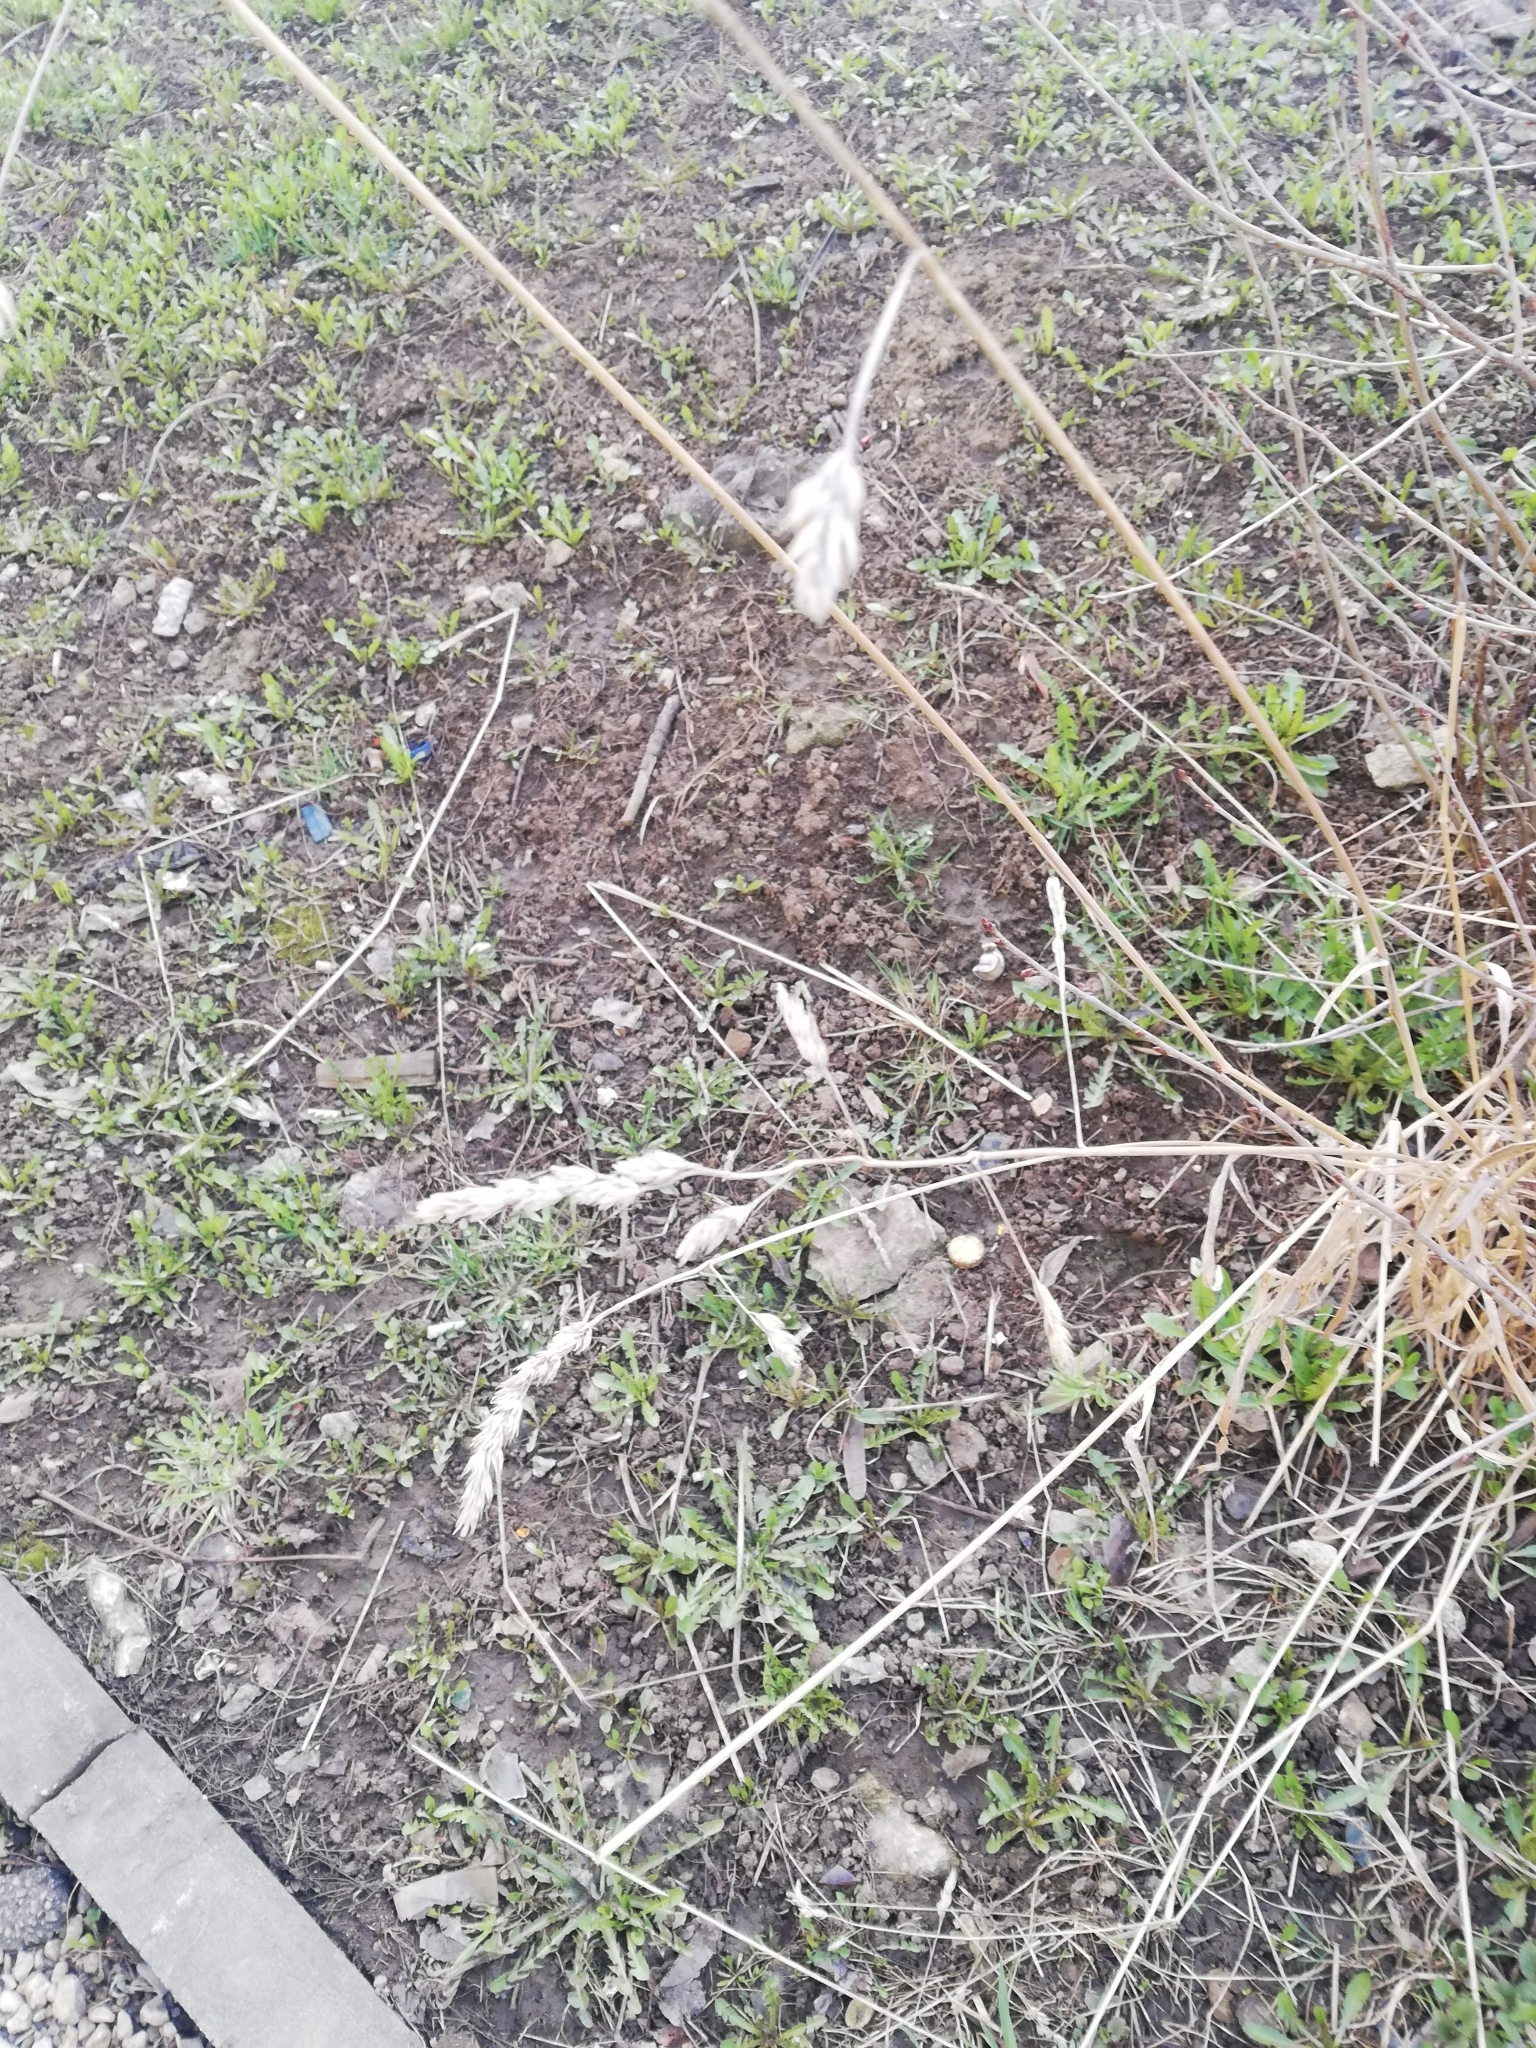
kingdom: Plantae
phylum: Tracheophyta
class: Liliopsida
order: Poales
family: Poaceae
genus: Dactylis
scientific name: Dactylis glomerata
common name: Orchardgrass
